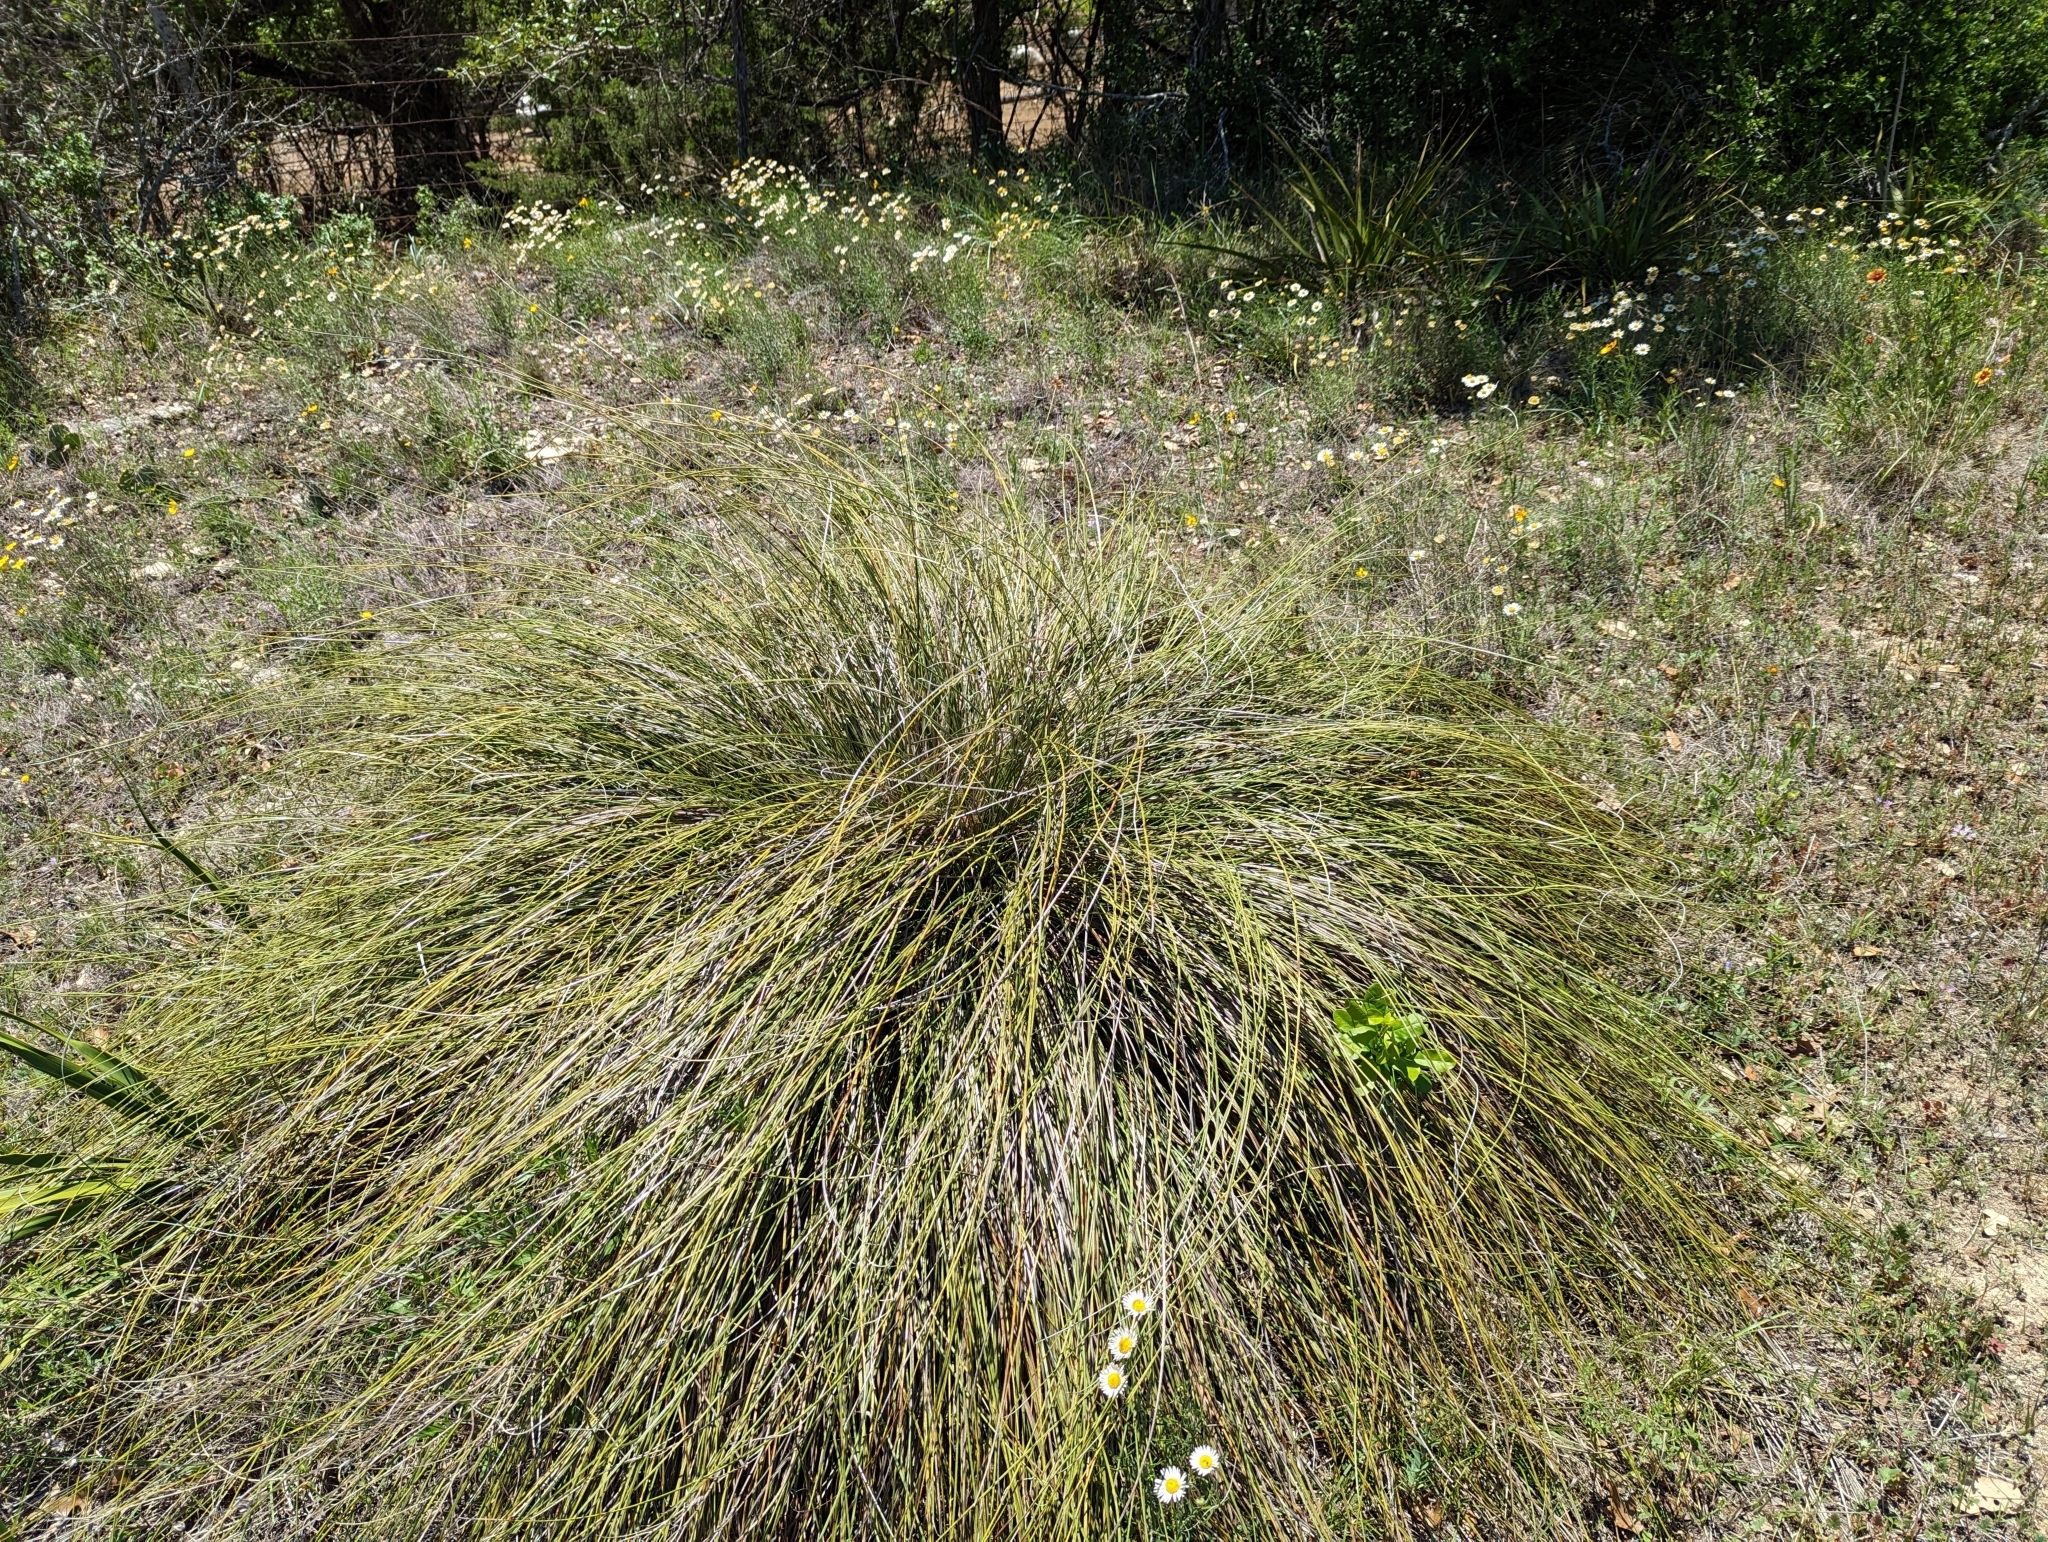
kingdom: Plantae
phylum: Tracheophyta
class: Liliopsida
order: Asparagales
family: Asparagaceae
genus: Nolina
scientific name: Nolina texana
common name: Texas sacahuiste
